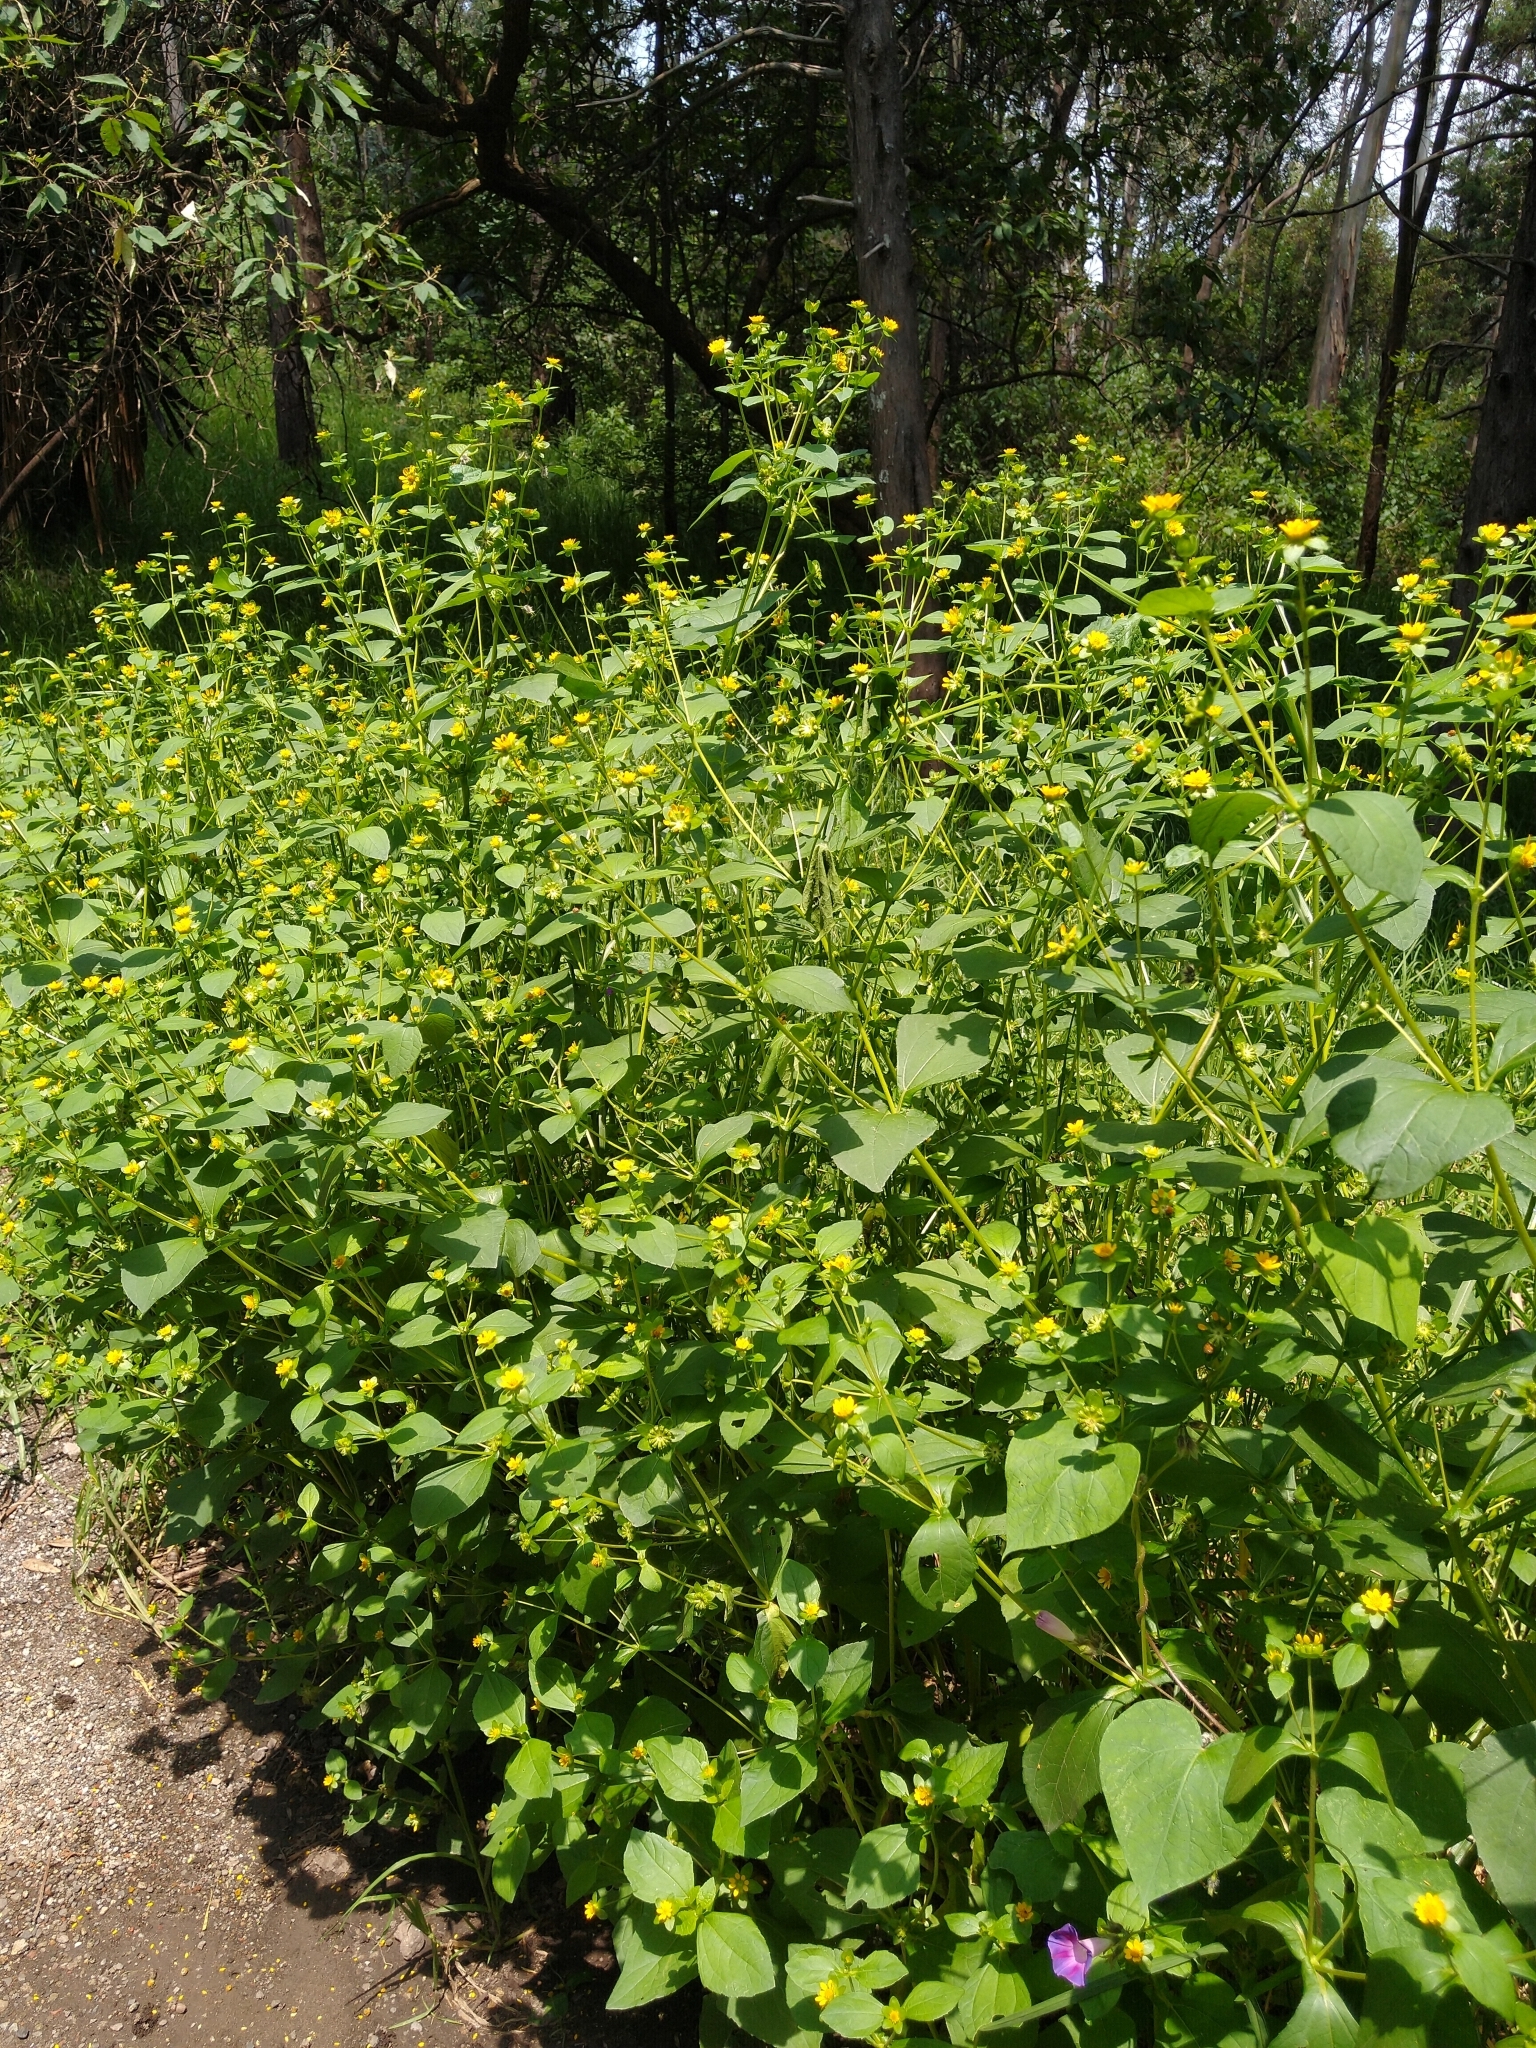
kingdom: Plantae
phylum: Tracheophyta
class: Magnoliopsida
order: Asterales
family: Asteraceae
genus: Melampodium
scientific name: Melampodium perfoliatum
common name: Perfoliate blackfoot
